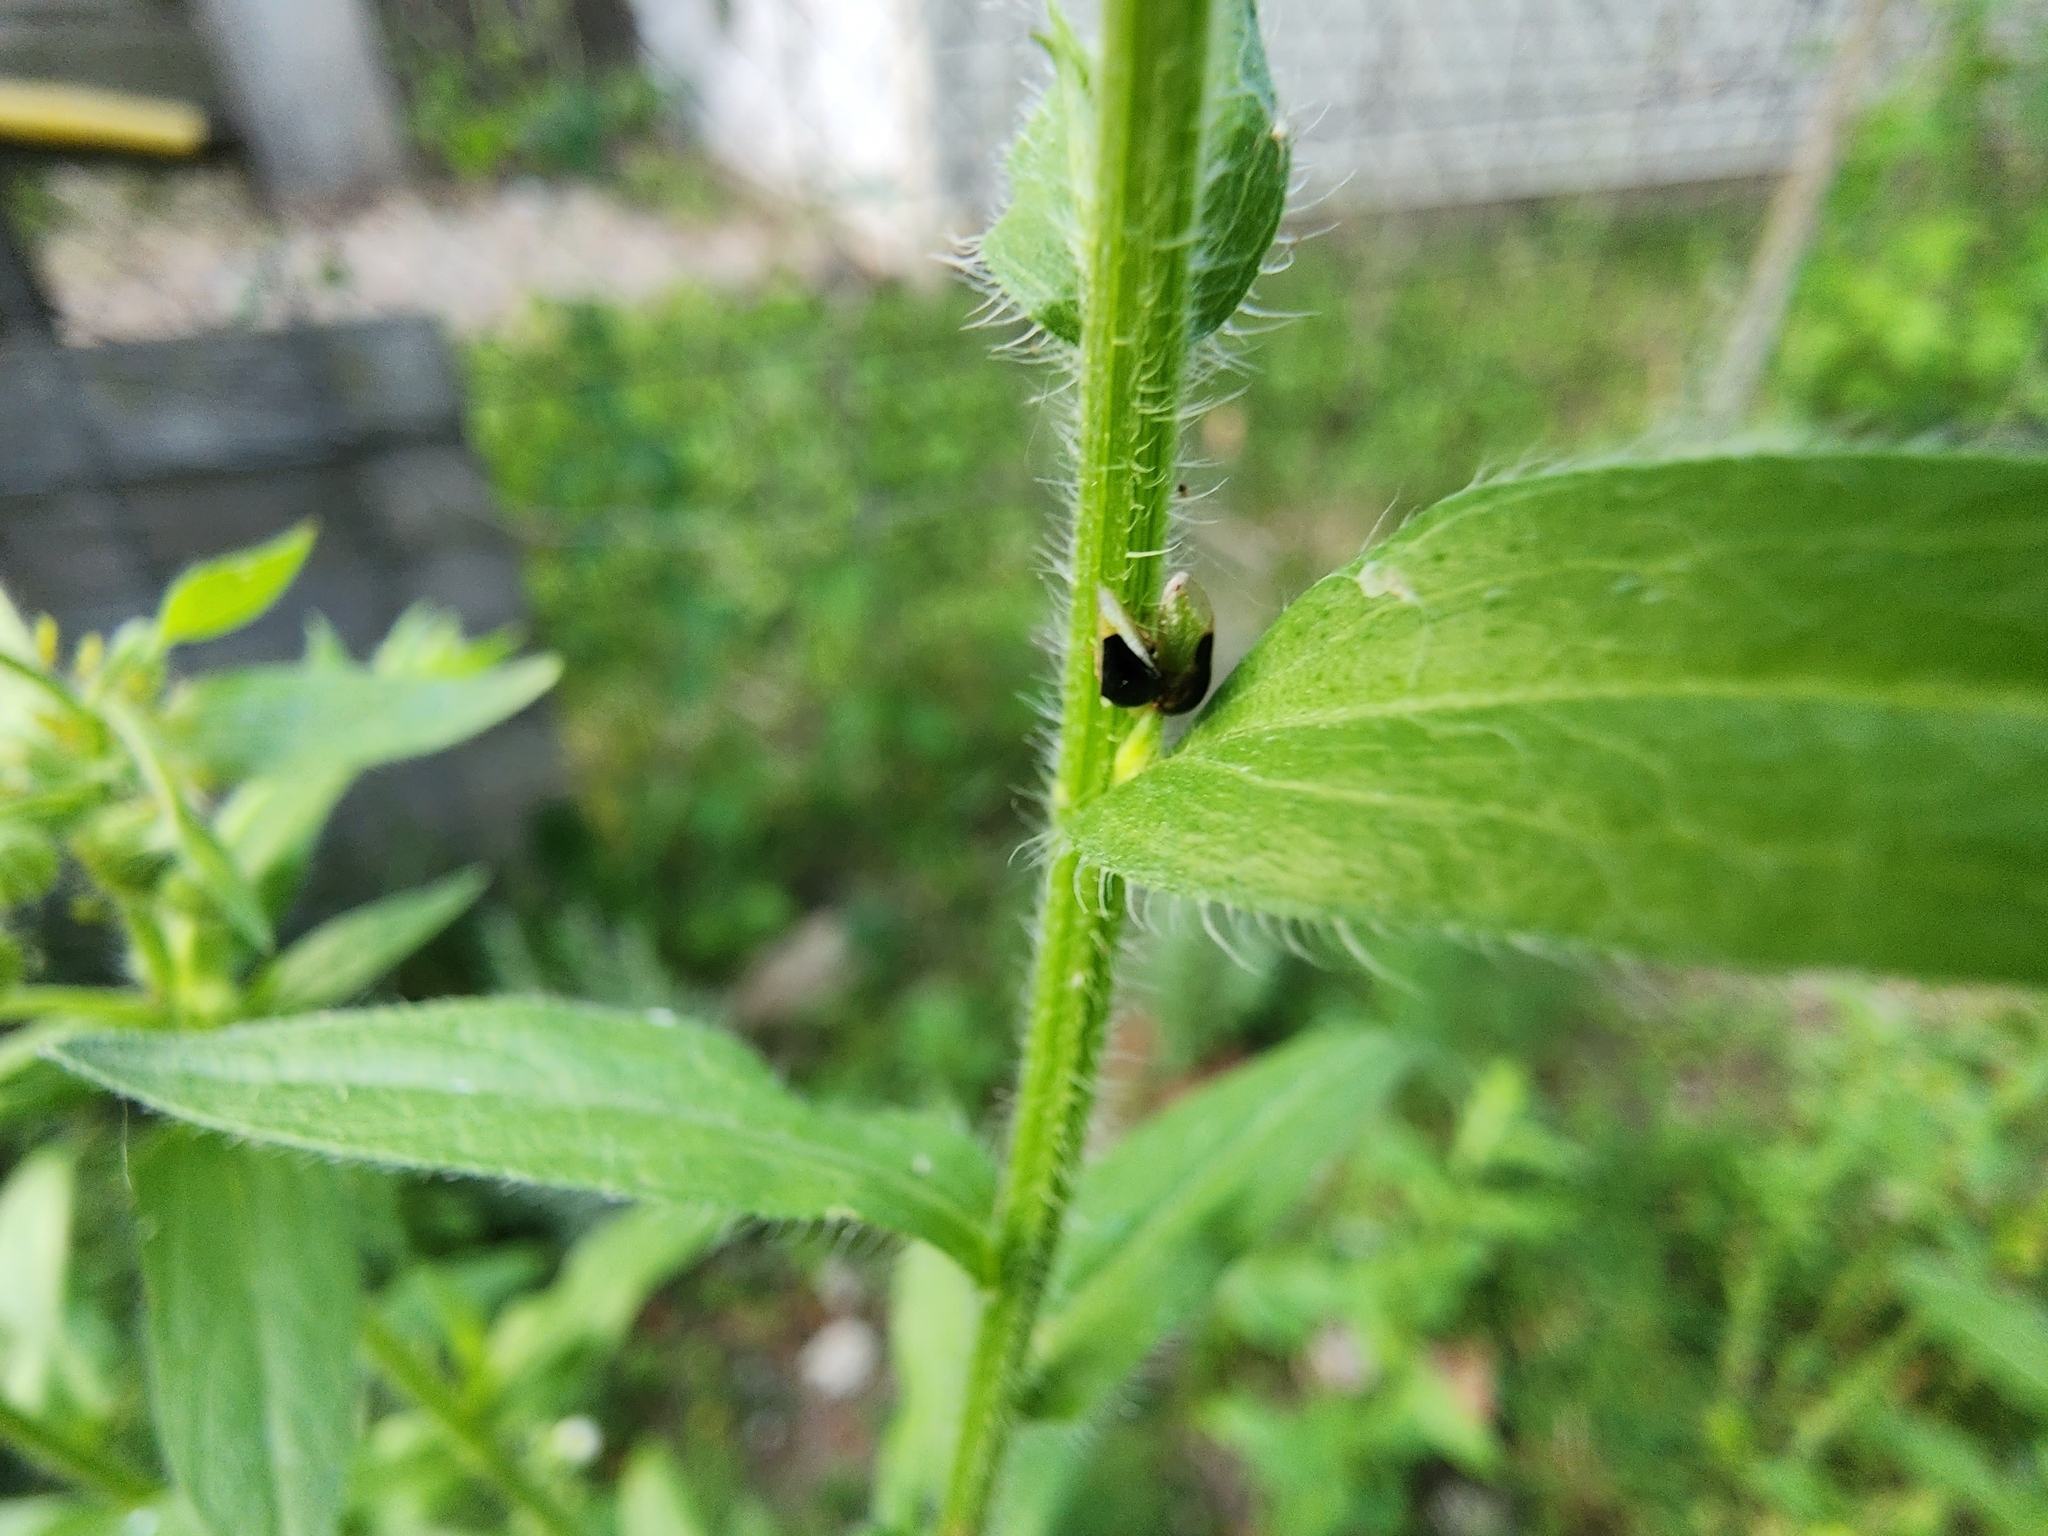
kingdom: Animalia
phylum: Arthropoda
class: Insecta
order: Hemiptera
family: Membracidae
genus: Micrutalis
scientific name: Micrutalis calva
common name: Honeylocust treehopper
